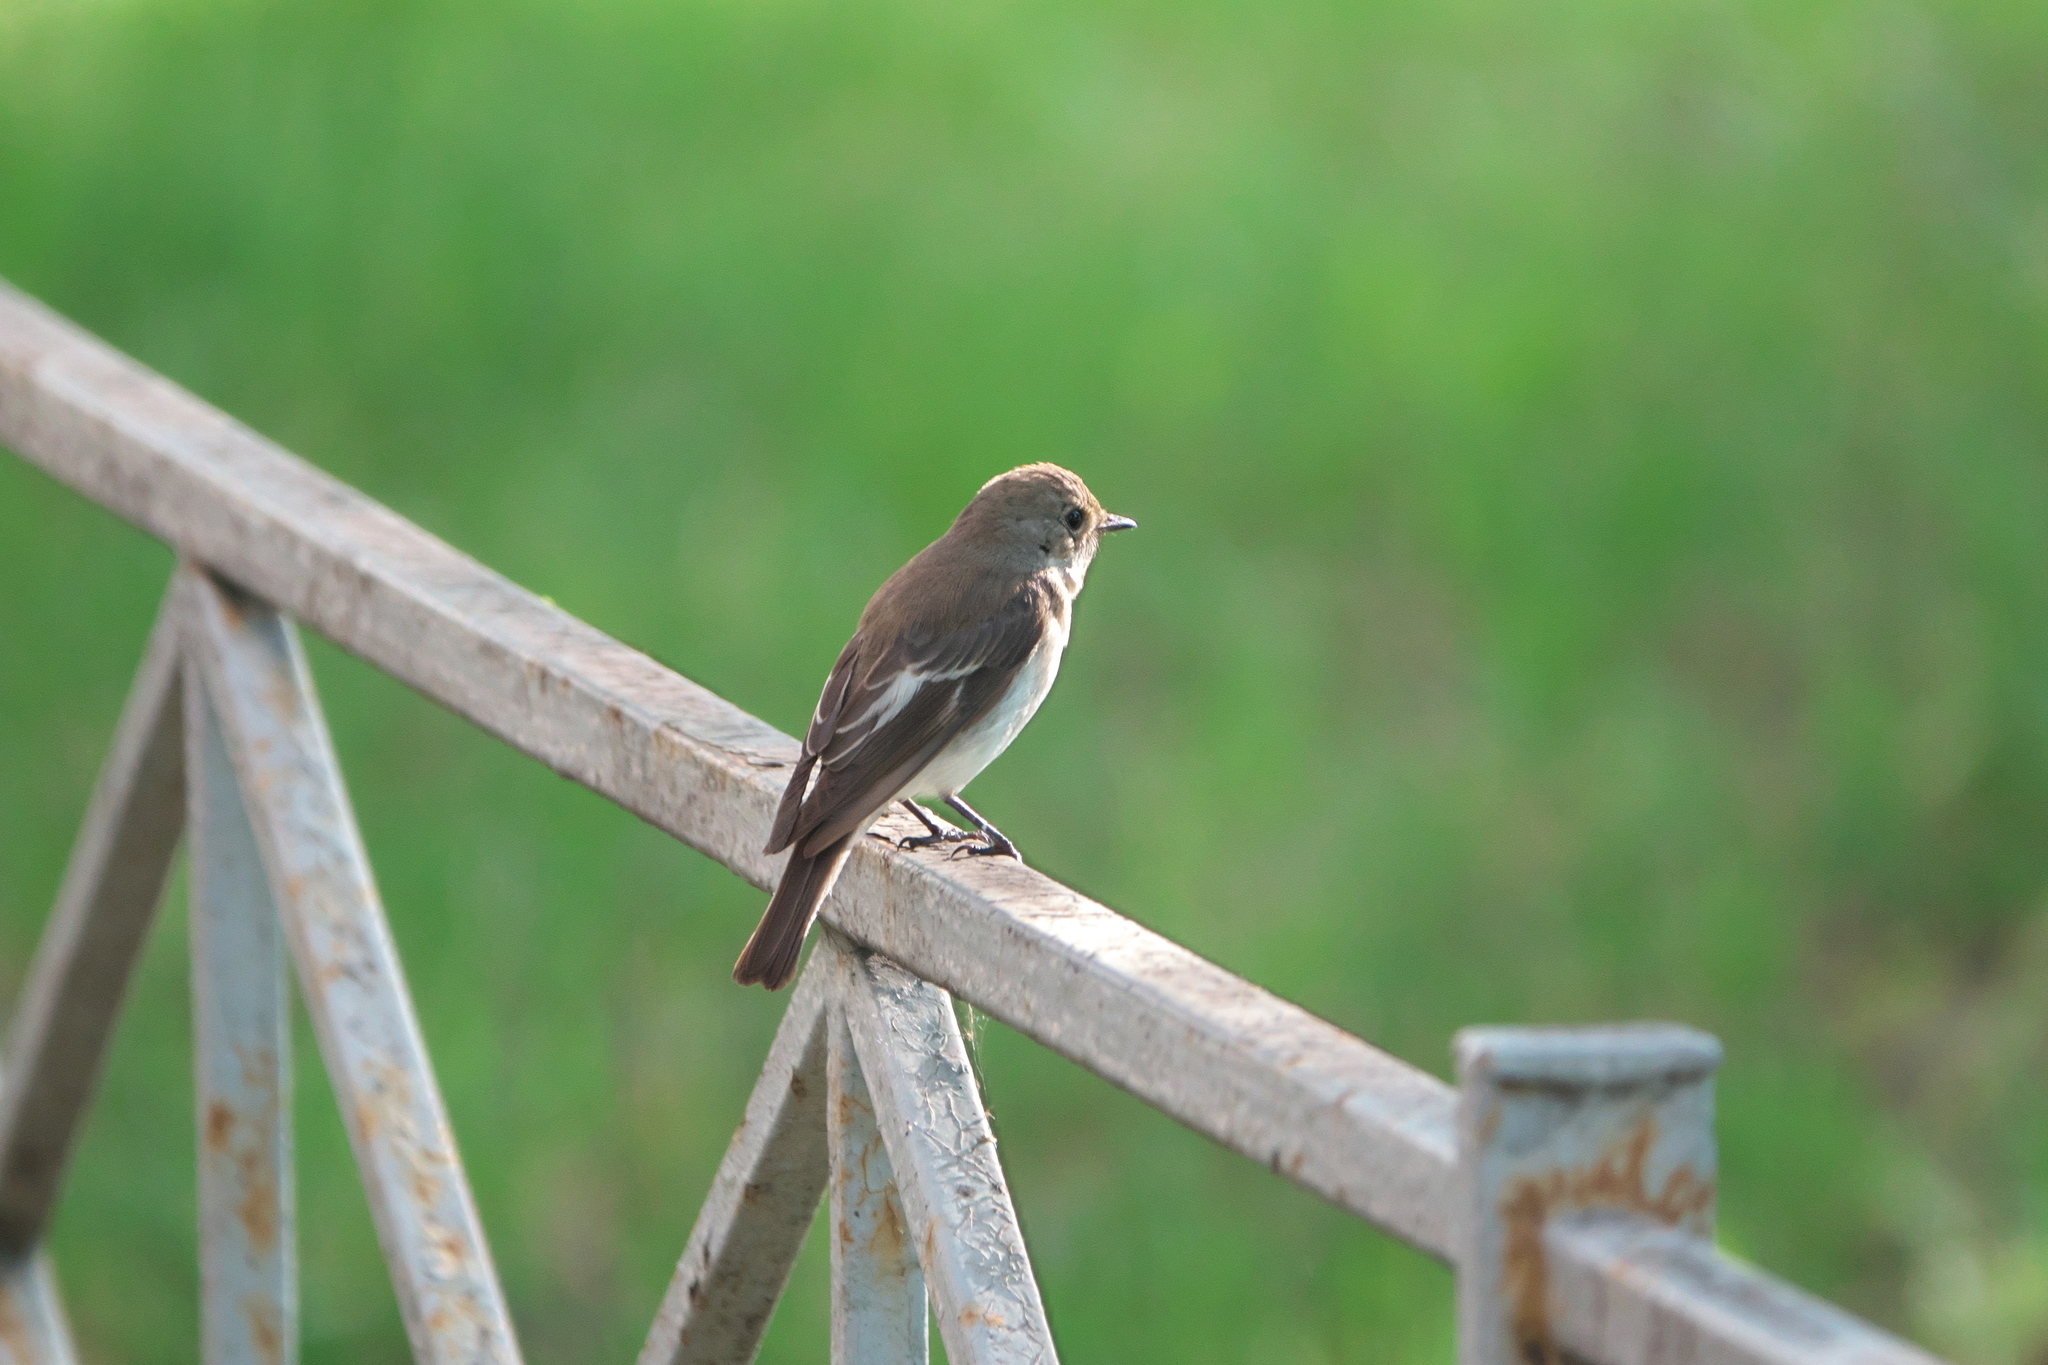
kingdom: Animalia
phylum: Chordata
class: Aves
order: Passeriformes
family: Muscicapidae
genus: Ficedula
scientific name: Ficedula hypoleuca
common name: European pied flycatcher
